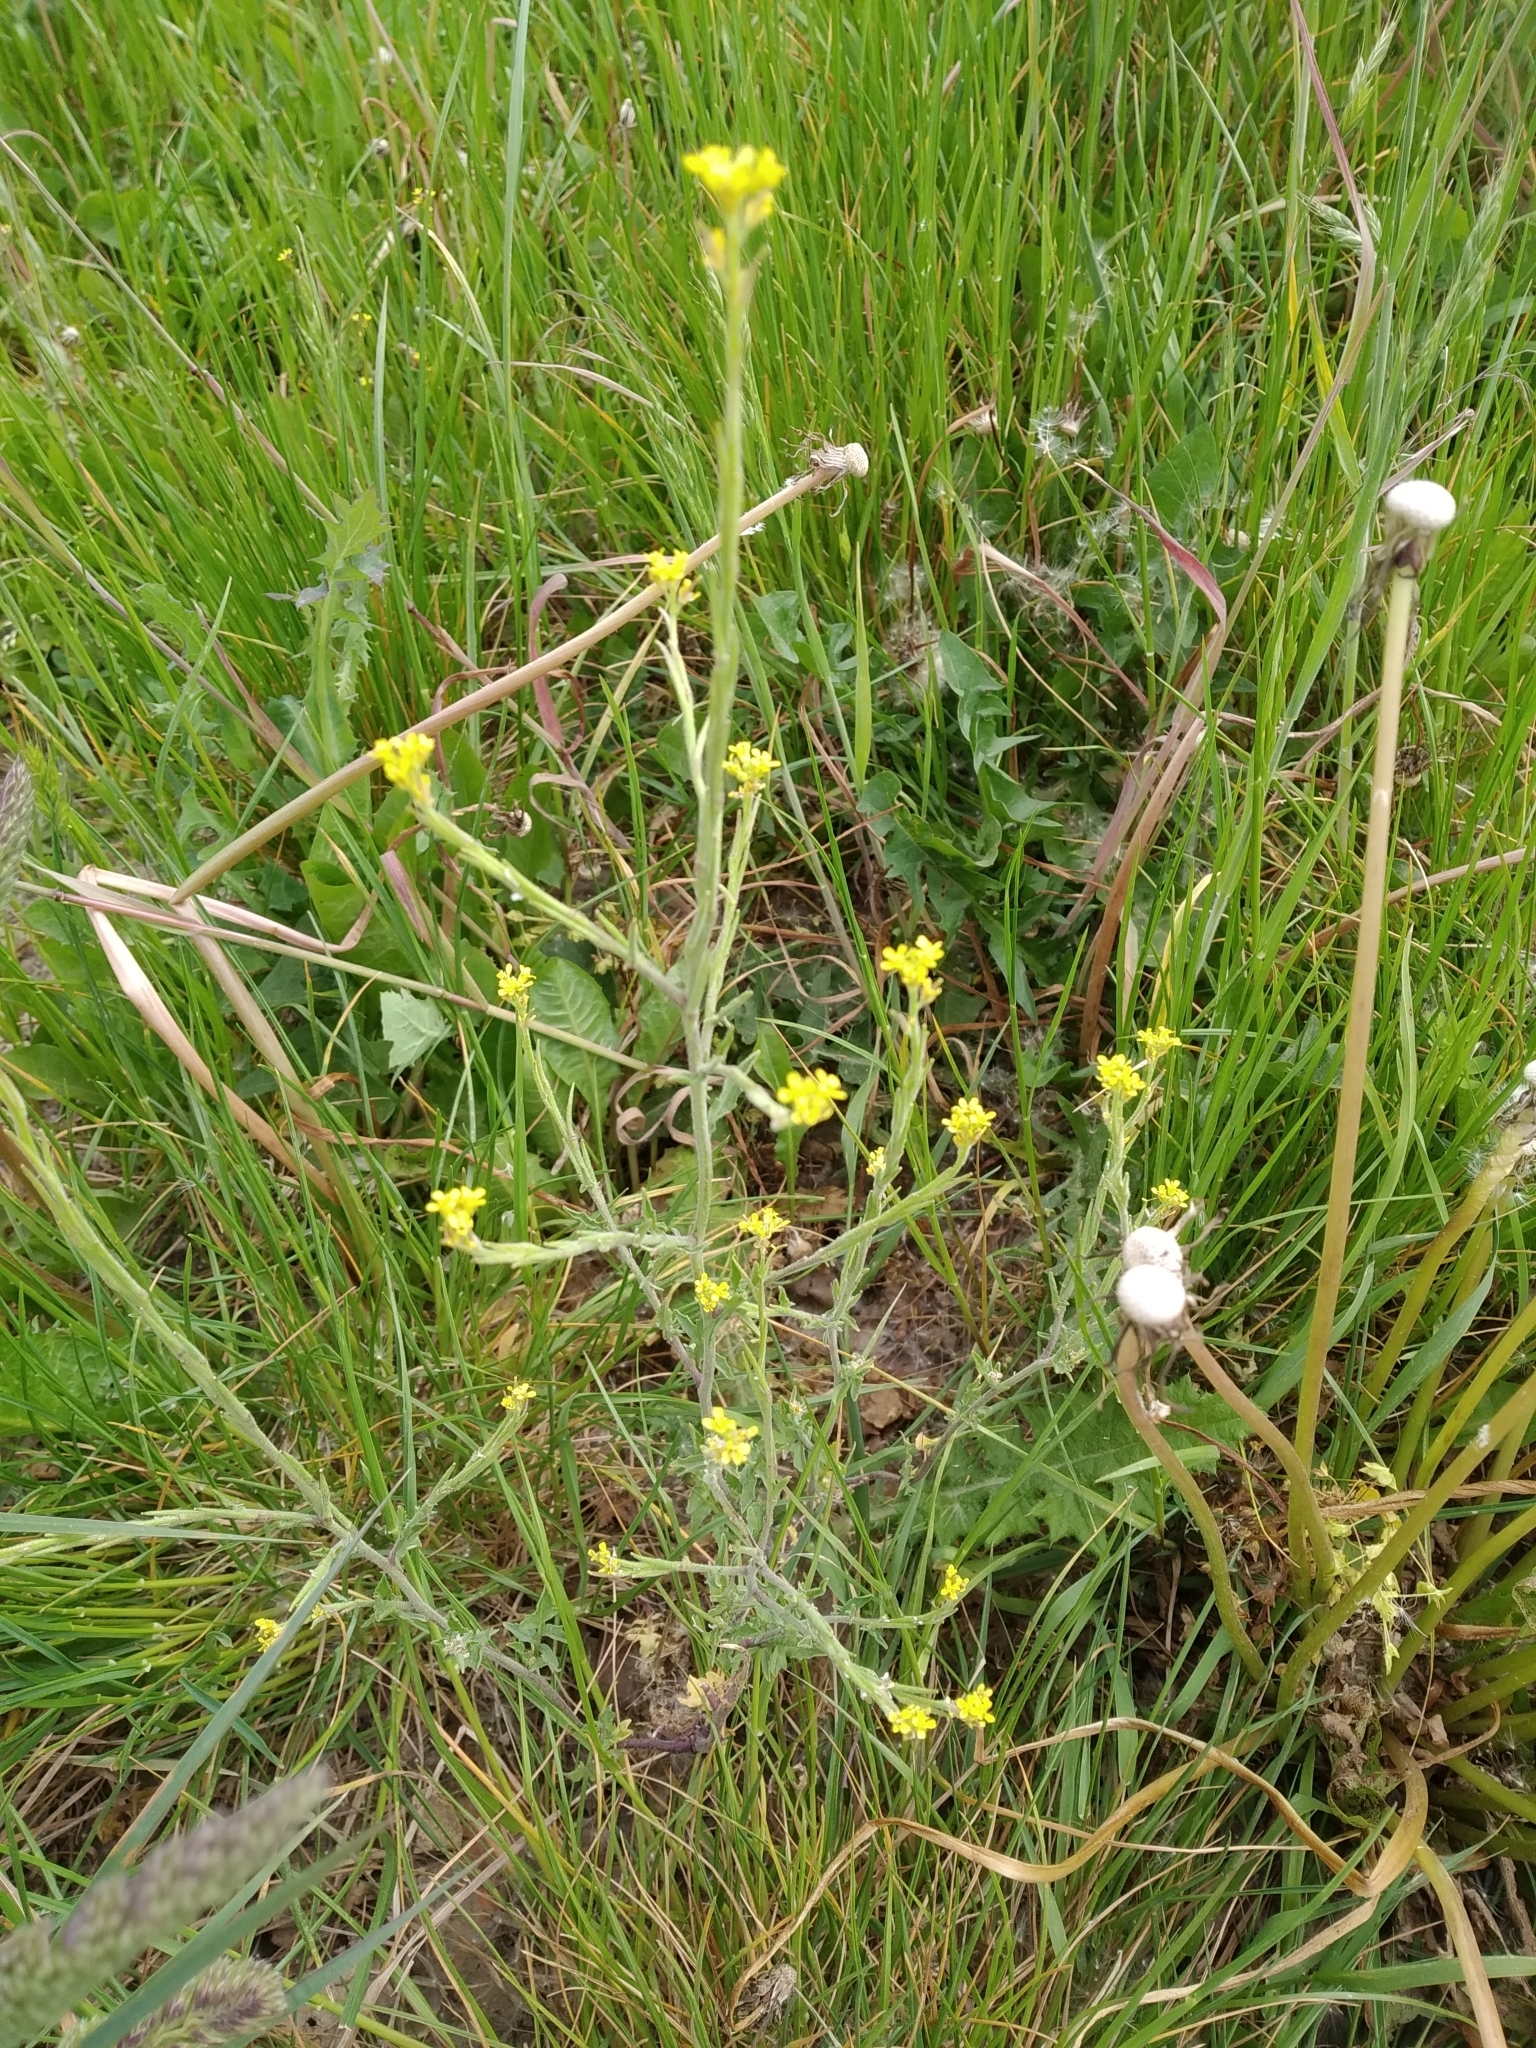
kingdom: Plantae
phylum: Tracheophyta
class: Magnoliopsida
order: Brassicales
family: Brassicaceae
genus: Sisymbrium
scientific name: Sisymbrium officinale
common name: Hedge mustard
